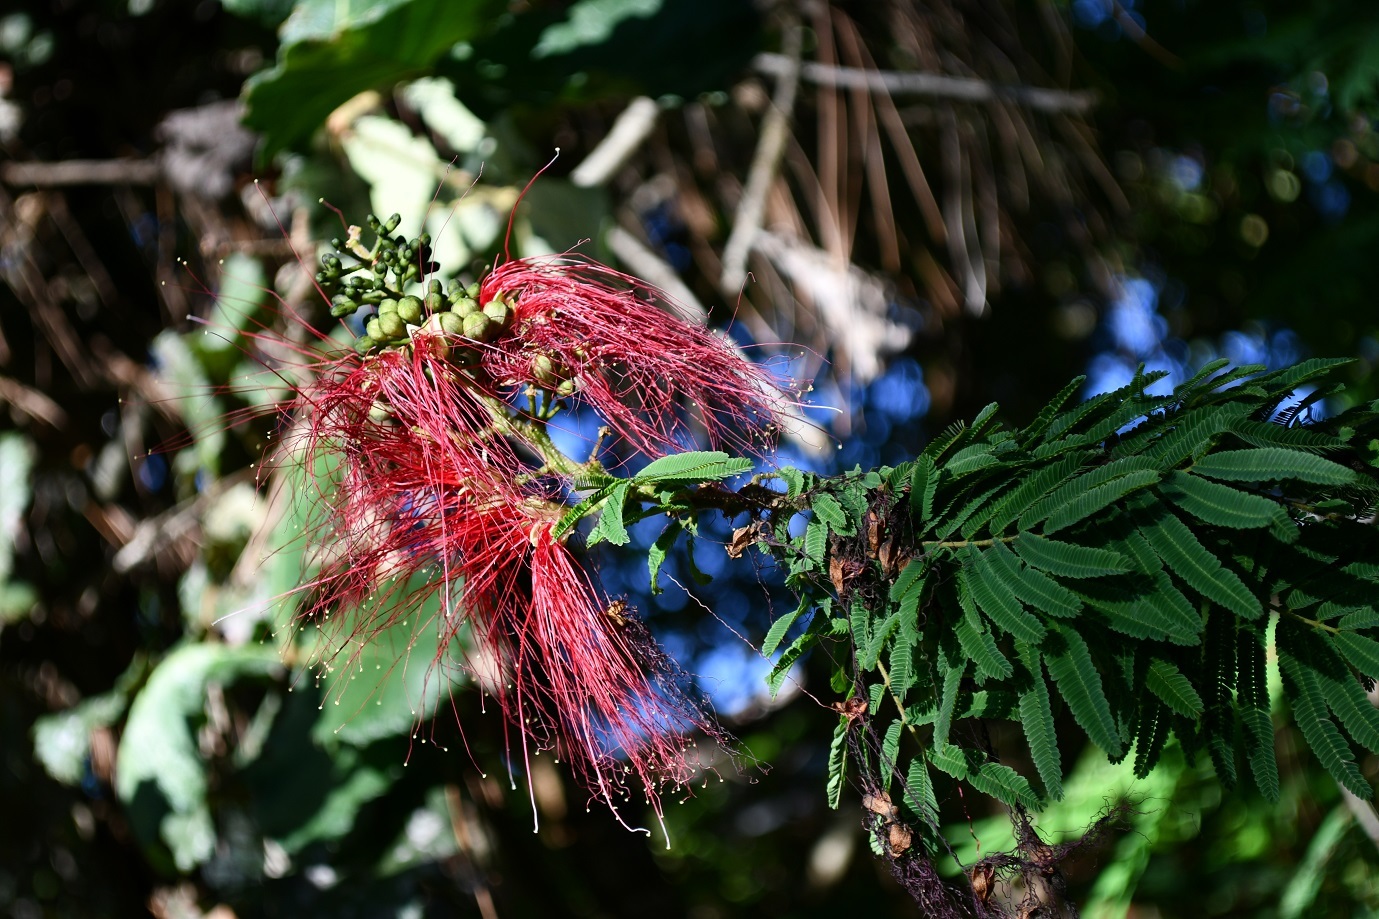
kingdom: Plantae
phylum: Tracheophyta
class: Magnoliopsida
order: Fabales
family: Fabaceae
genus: Calliandra
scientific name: Calliandra houstoniana
